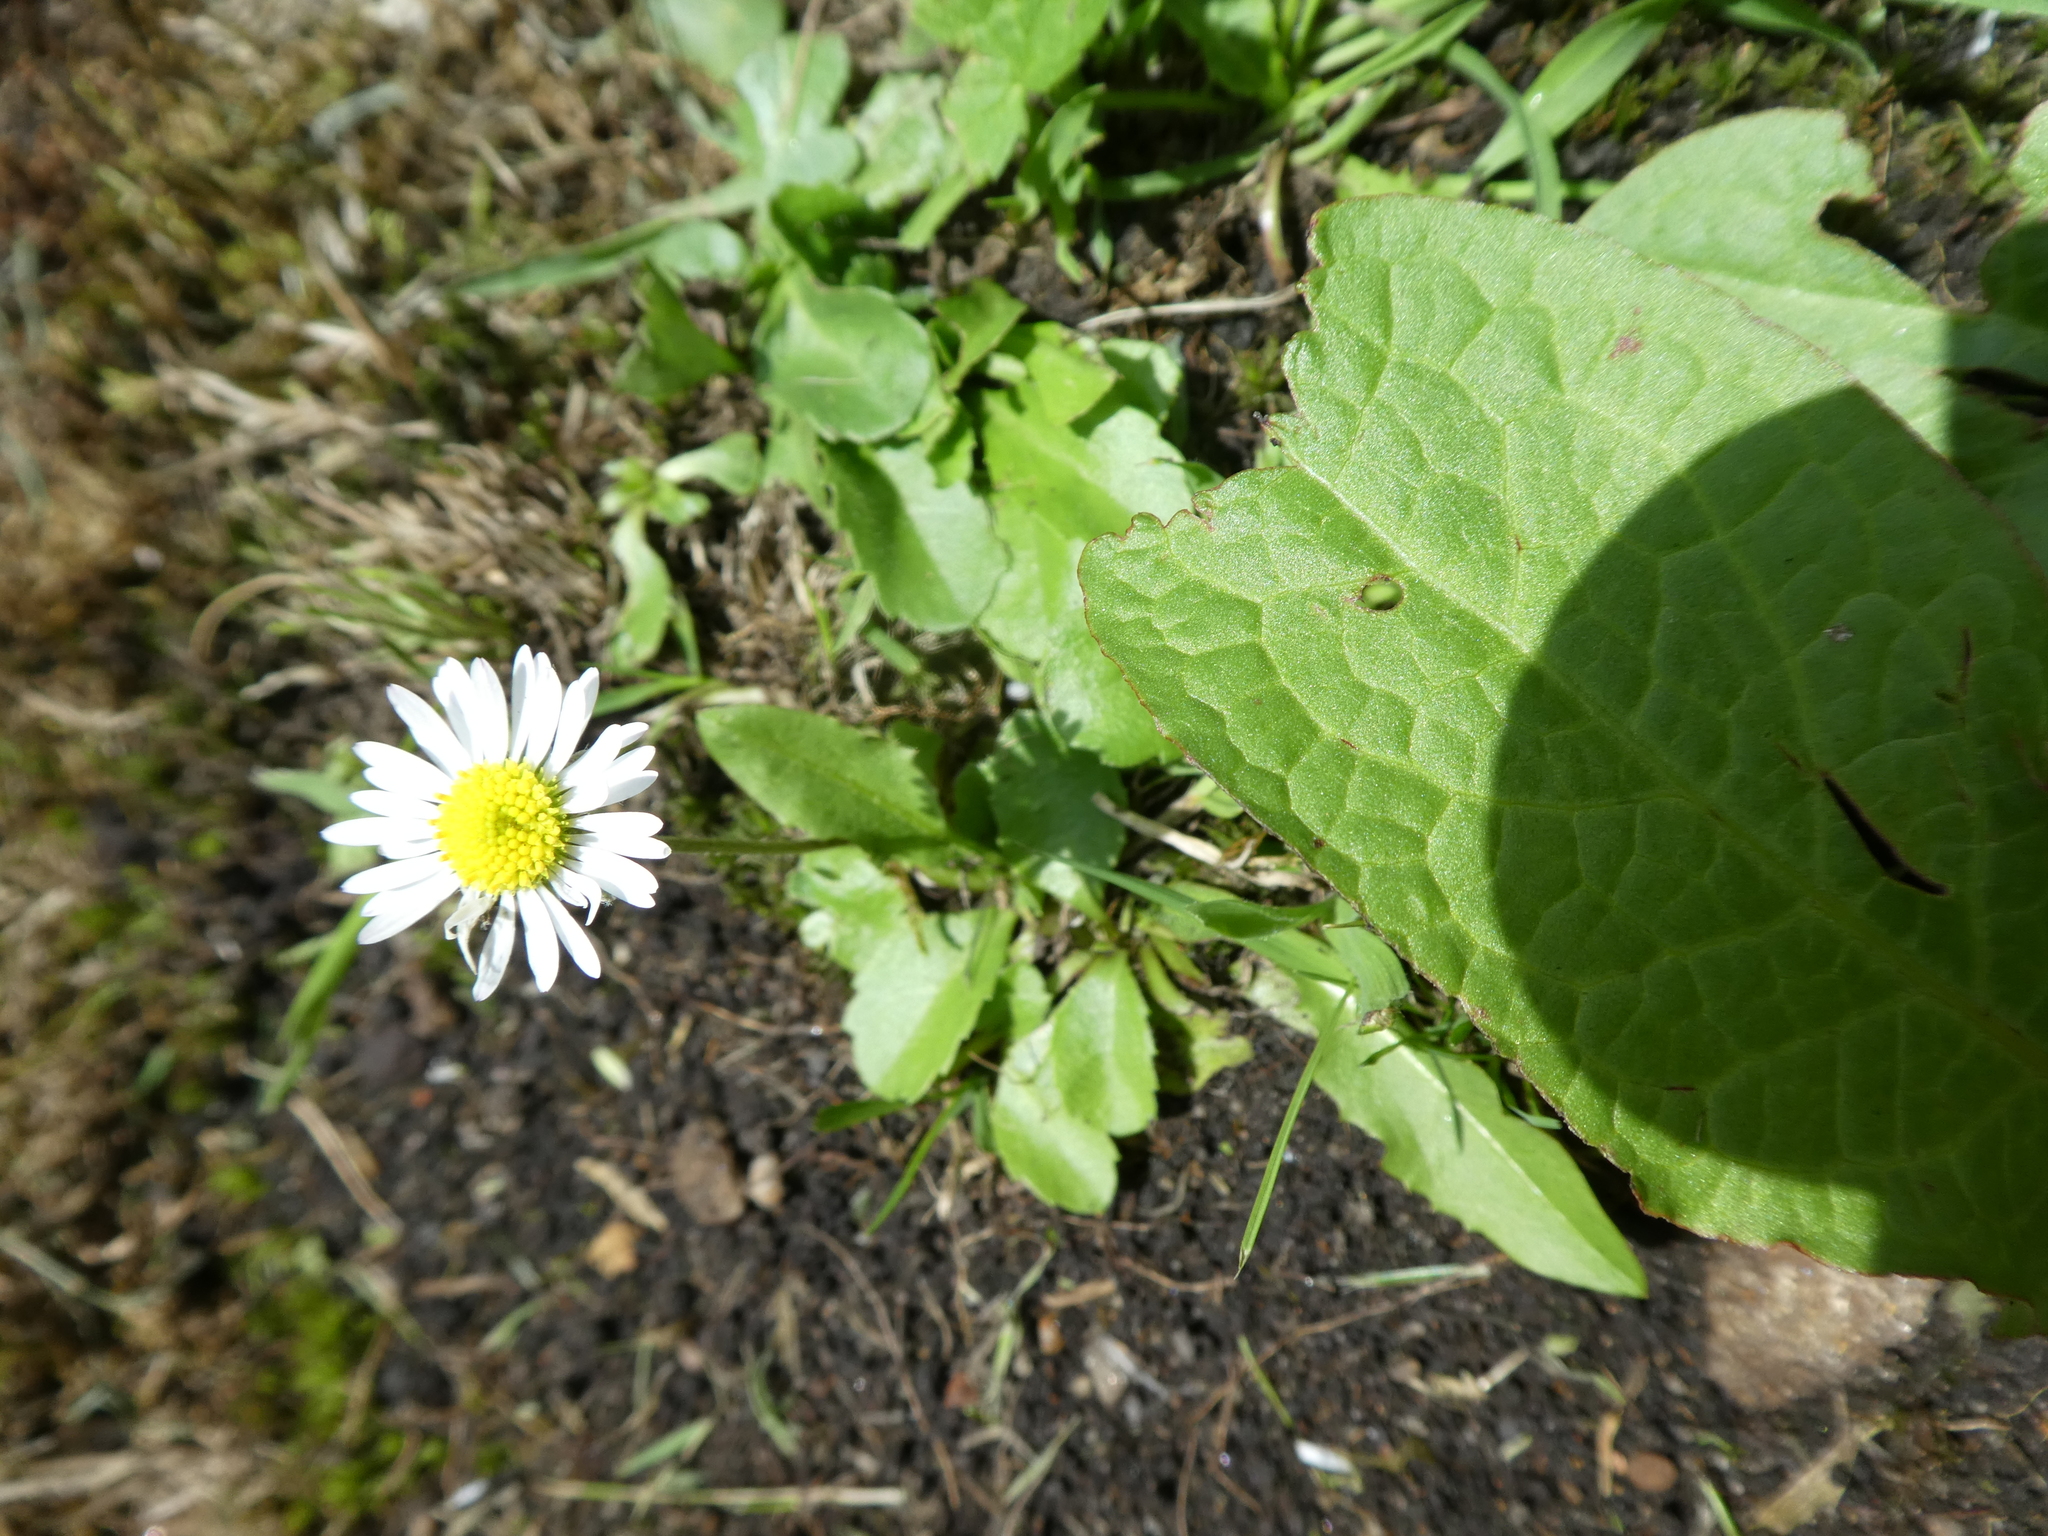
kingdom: Plantae
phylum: Tracheophyta
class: Magnoliopsida
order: Asterales
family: Asteraceae
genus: Bellis
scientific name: Bellis perennis
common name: Lawndaisy
